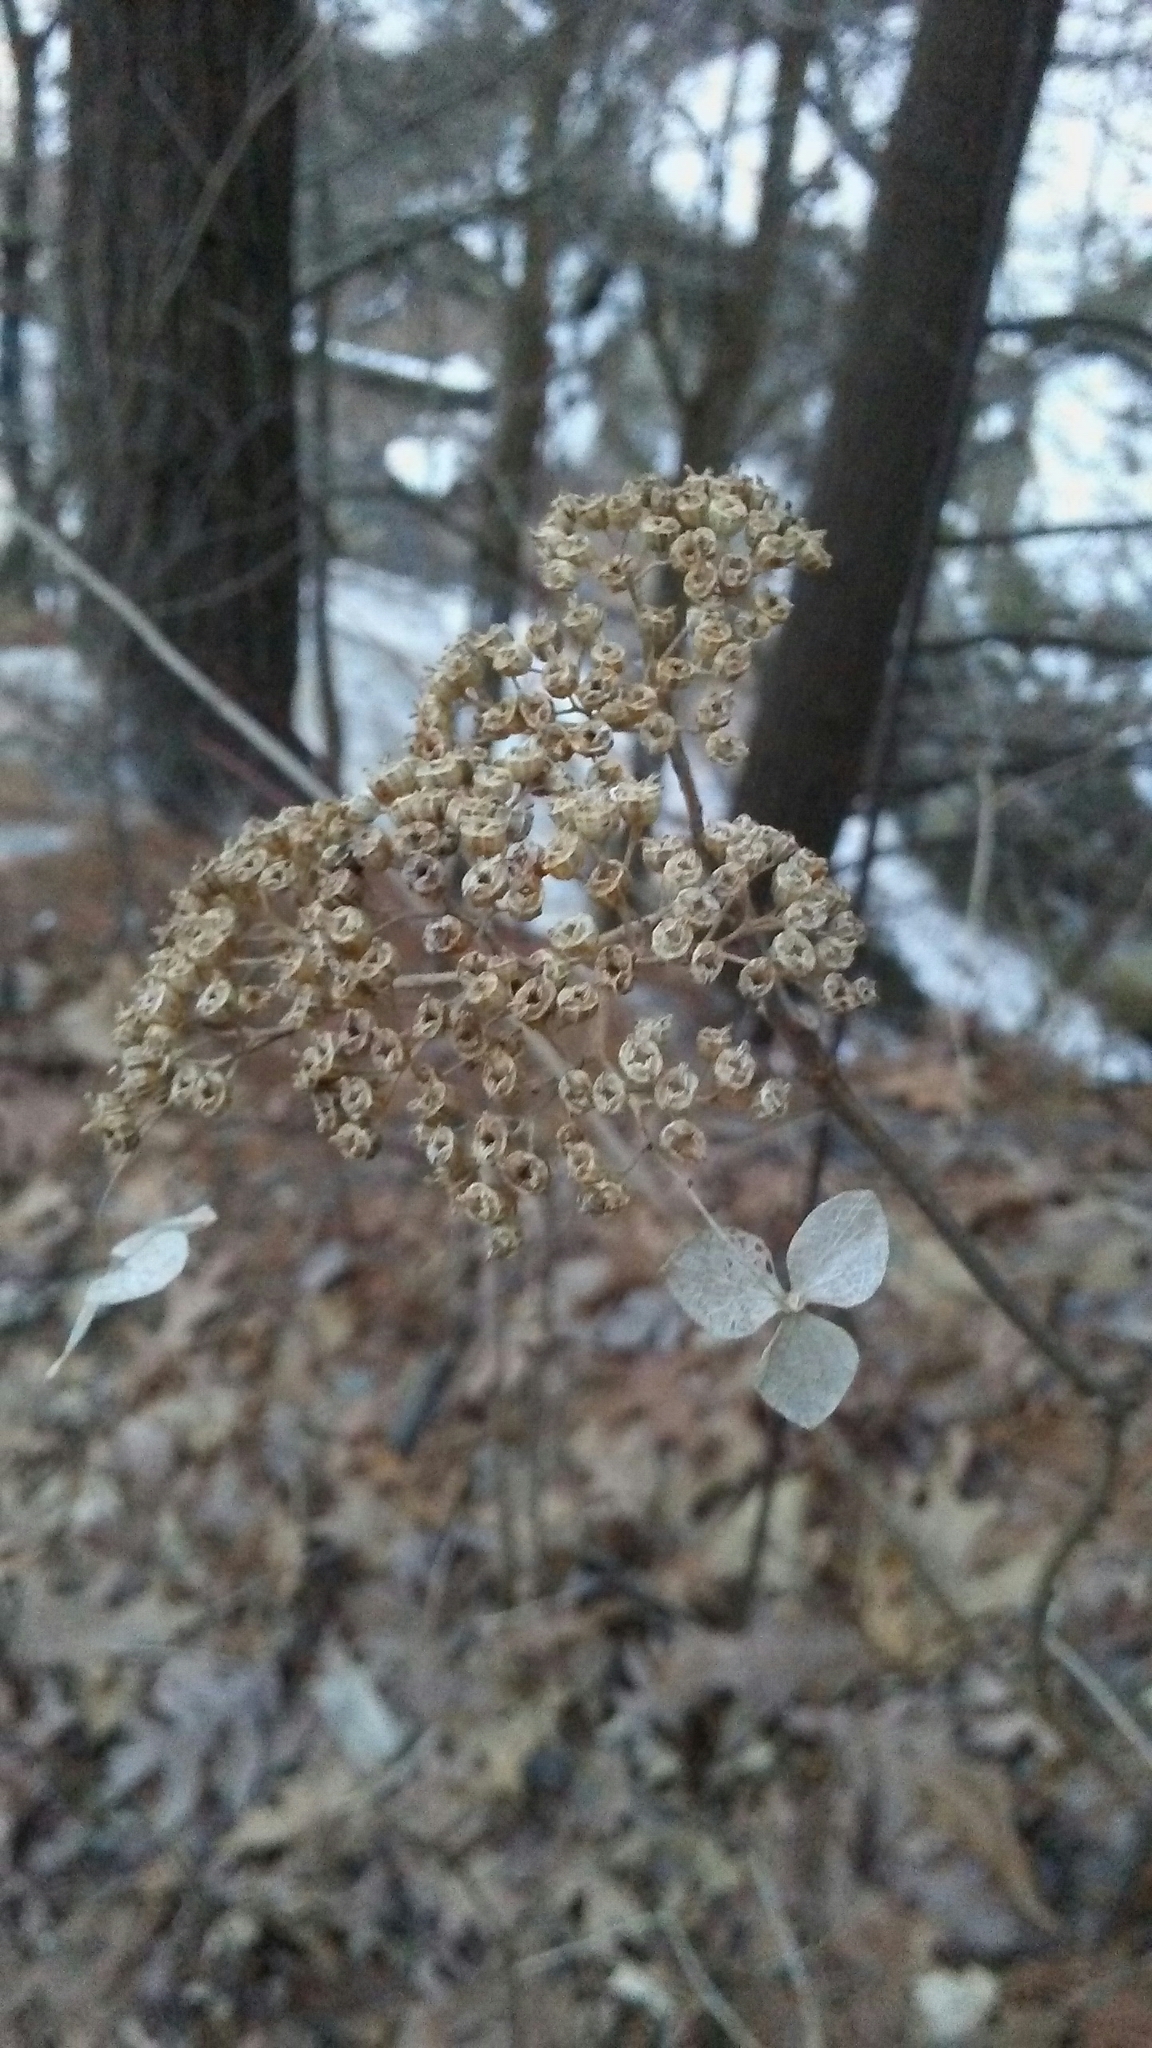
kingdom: Plantae
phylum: Tracheophyta
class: Magnoliopsida
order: Cornales
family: Hydrangeaceae
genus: Hydrangea
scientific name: Hydrangea arborescens
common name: Sevenbark
